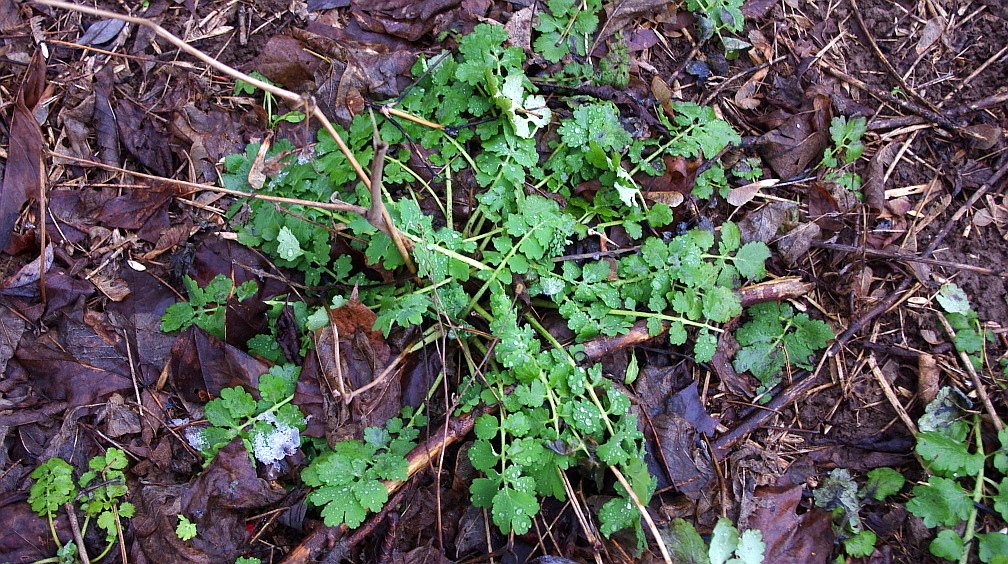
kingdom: Plantae
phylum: Tracheophyta
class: Magnoliopsida
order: Ranunculales
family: Papaveraceae
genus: Chelidonium
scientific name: Chelidonium majus
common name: Greater celandine
